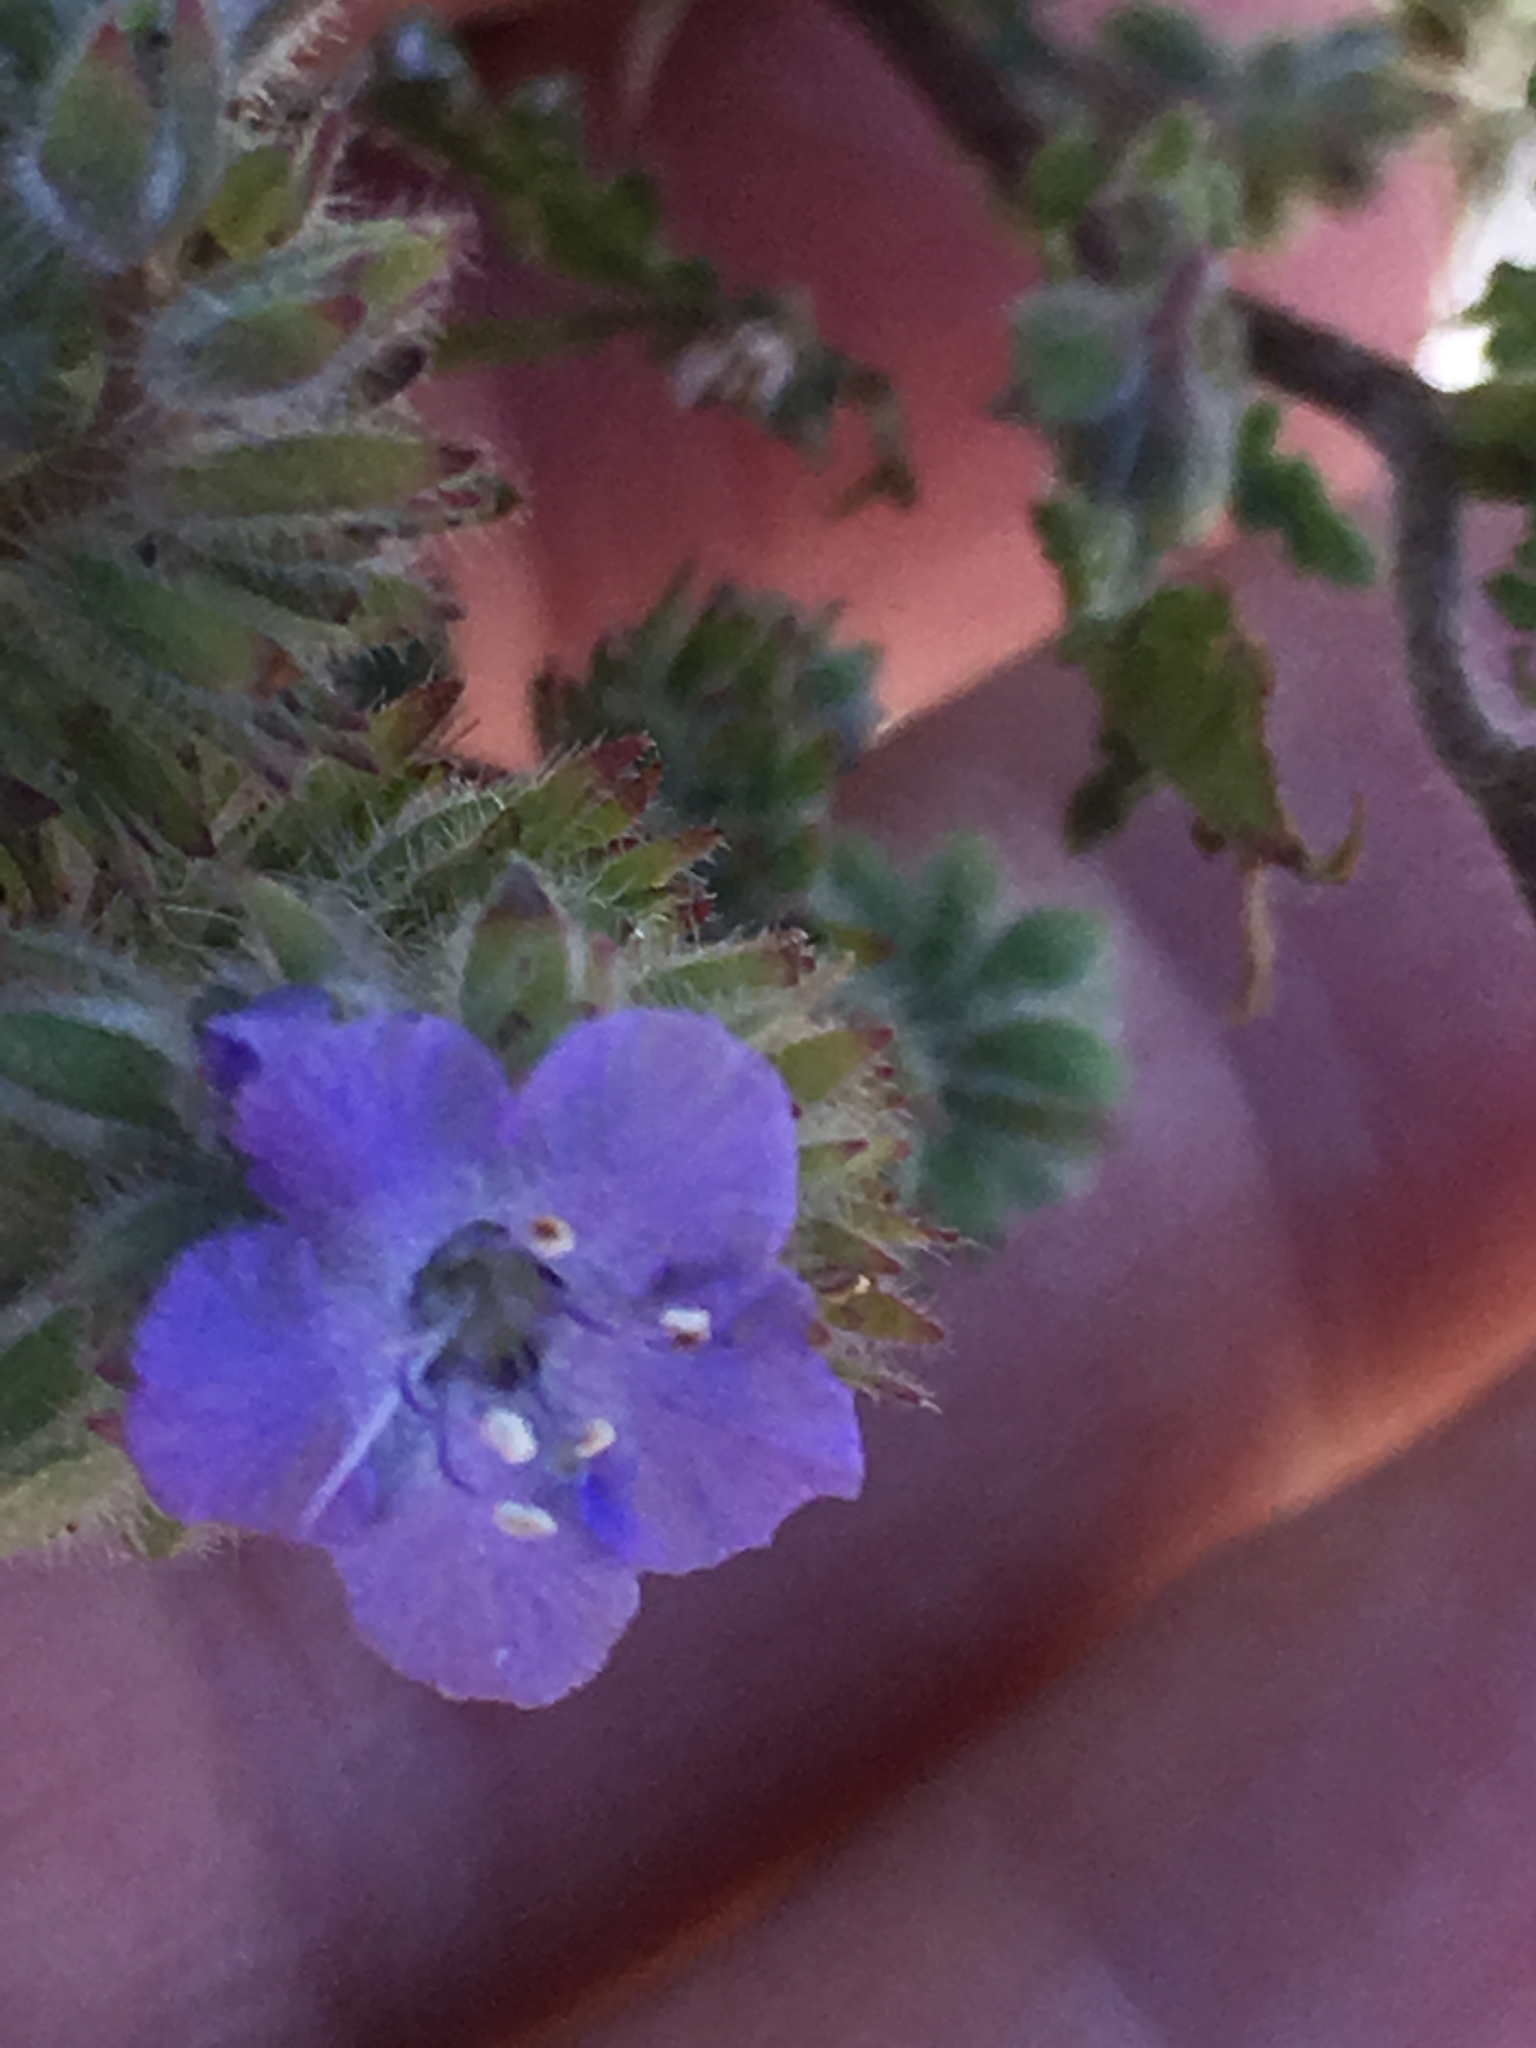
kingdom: Plantae
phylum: Tracheophyta
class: Magnoliopsida
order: Boraginales
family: Hydrophyllaceae
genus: Phacelia
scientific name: Phacelia distans
